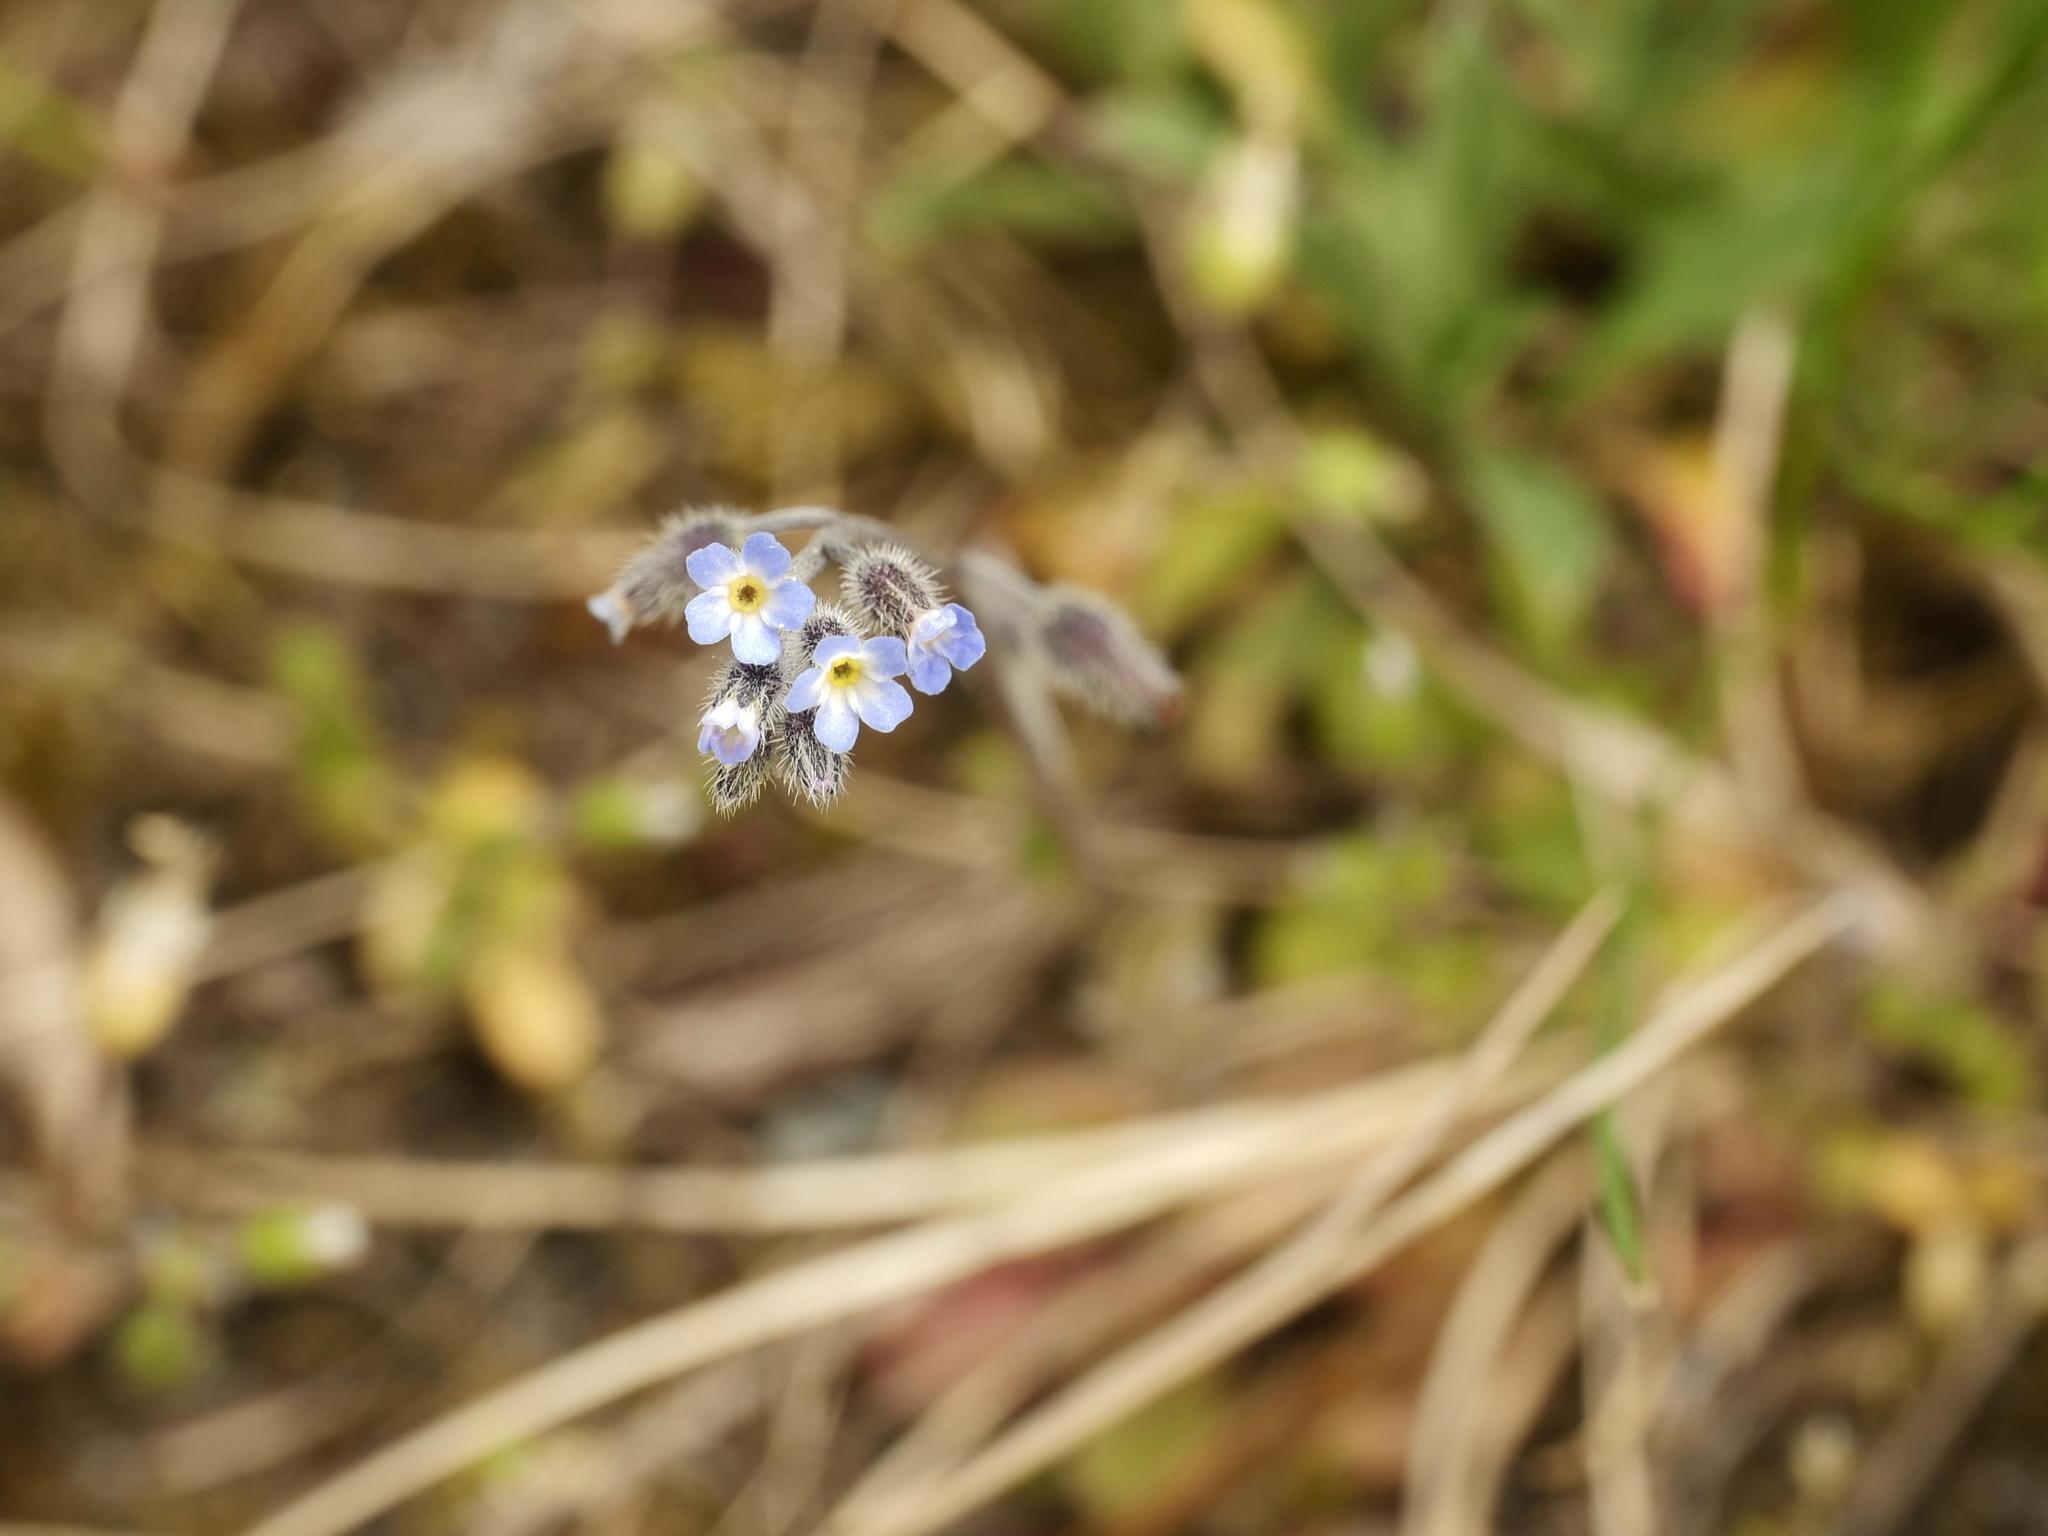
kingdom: Plantae
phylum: Tracheophyta
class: Magnoliopsida
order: Boraginales
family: Boraginaceae
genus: Myosotis
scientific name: Myosotis ramosissima
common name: Early forget-me-not
